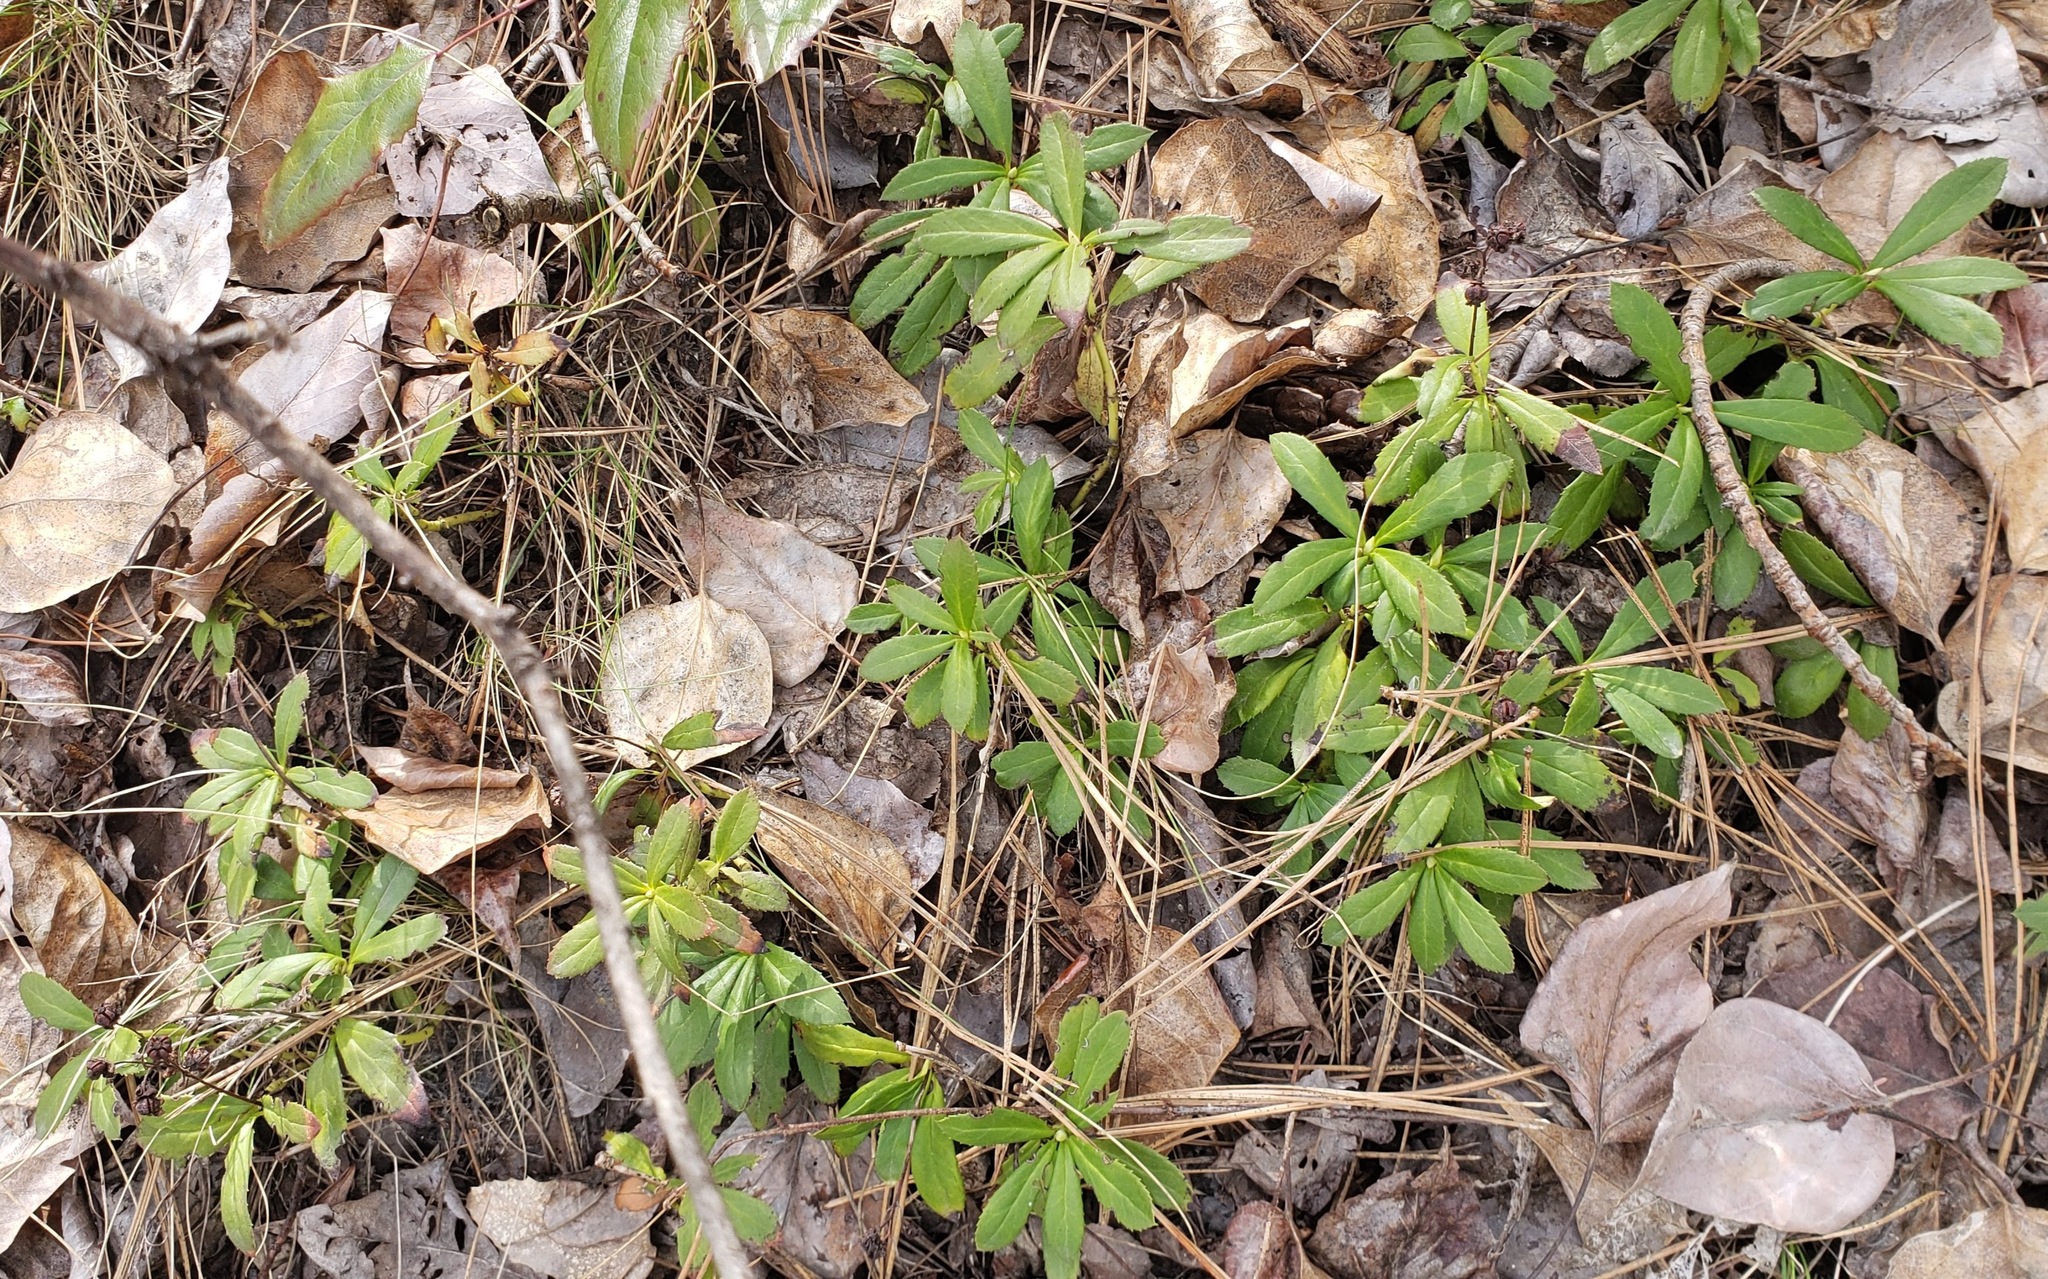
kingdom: Plantae
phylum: Tracheophyta
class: Magnoliopsida
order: Ericales
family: Ericaceae
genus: Chimaphila
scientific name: Chimaphila umbellata
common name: Pipsissewa
